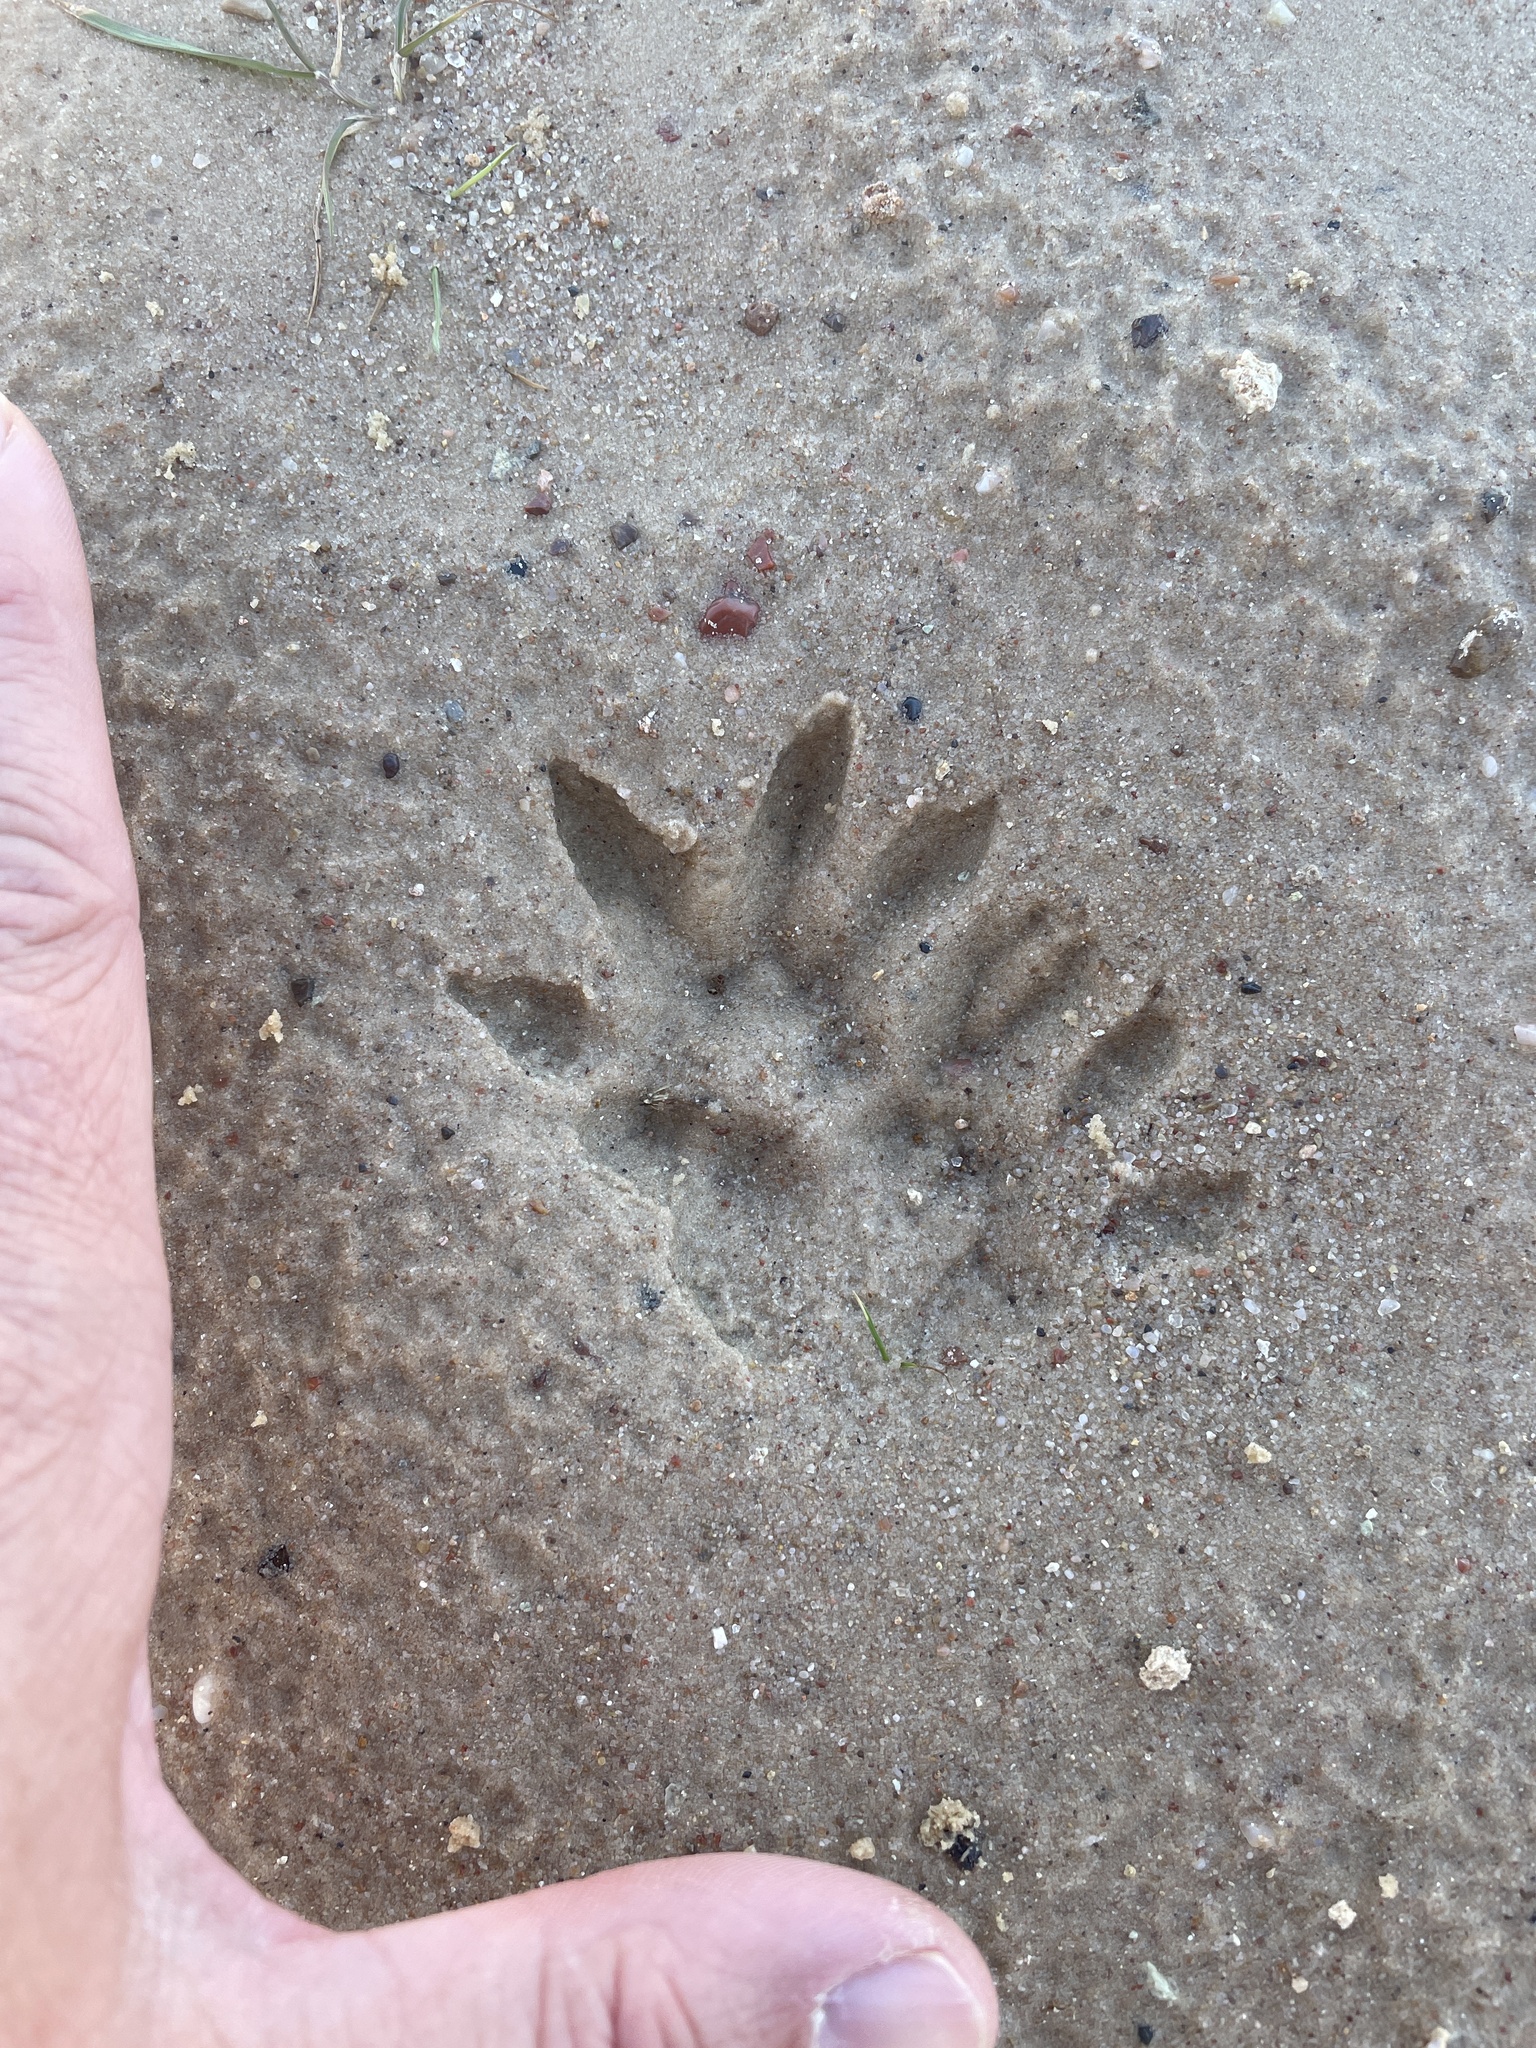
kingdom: Animalia
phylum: Chordata
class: Mammalia
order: Didelphimorphia
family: Didelphidae
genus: Didelphis
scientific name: Didelphis virginiana
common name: Virginia opossum
